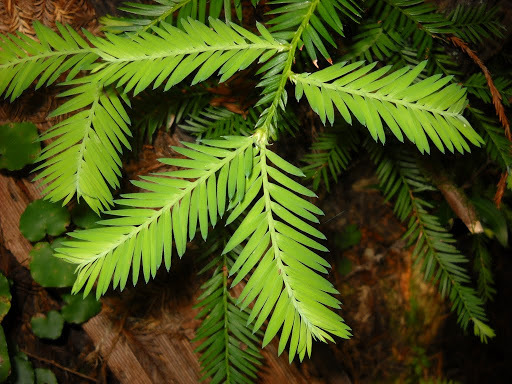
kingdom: Plantae
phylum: Tracheophyta
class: Pinopsida
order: Pinales
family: Cupressaceae
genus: Sequoia
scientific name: Sequoia sempervirens
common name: Coast redwood
